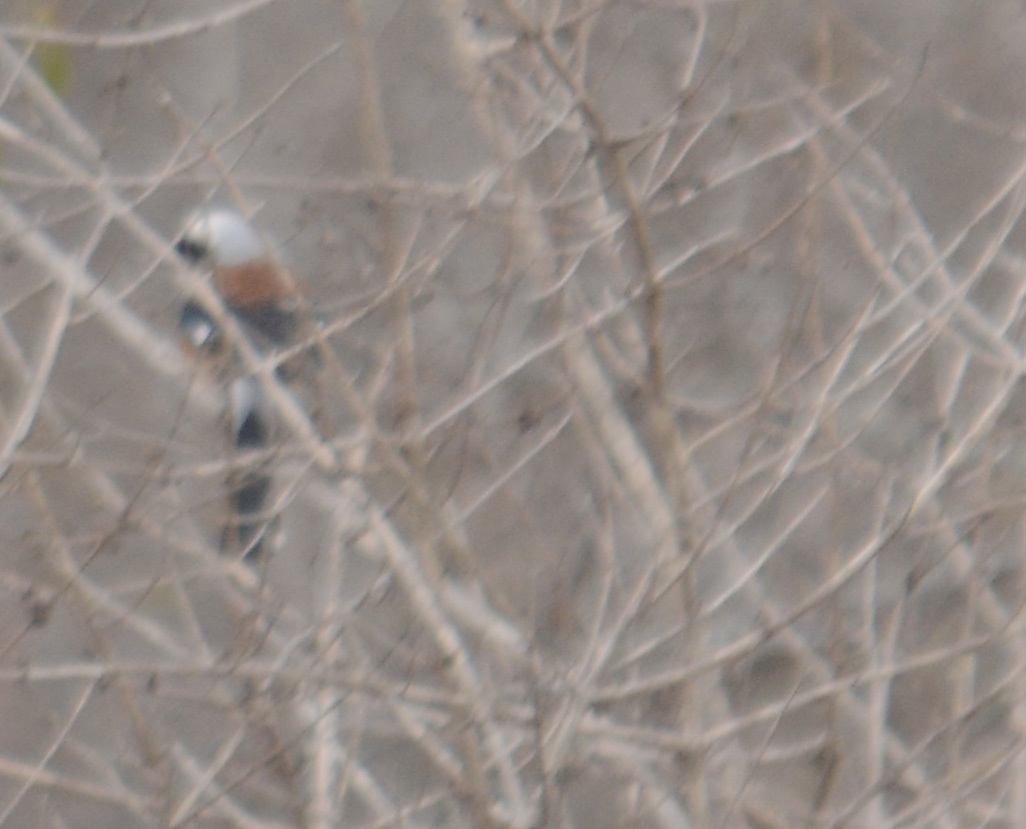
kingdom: Animalia
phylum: Chordata
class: Aves
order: Passeriformes
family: Laniidae
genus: Lanius
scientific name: Lanius vittatus
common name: Bay-backed shrike
